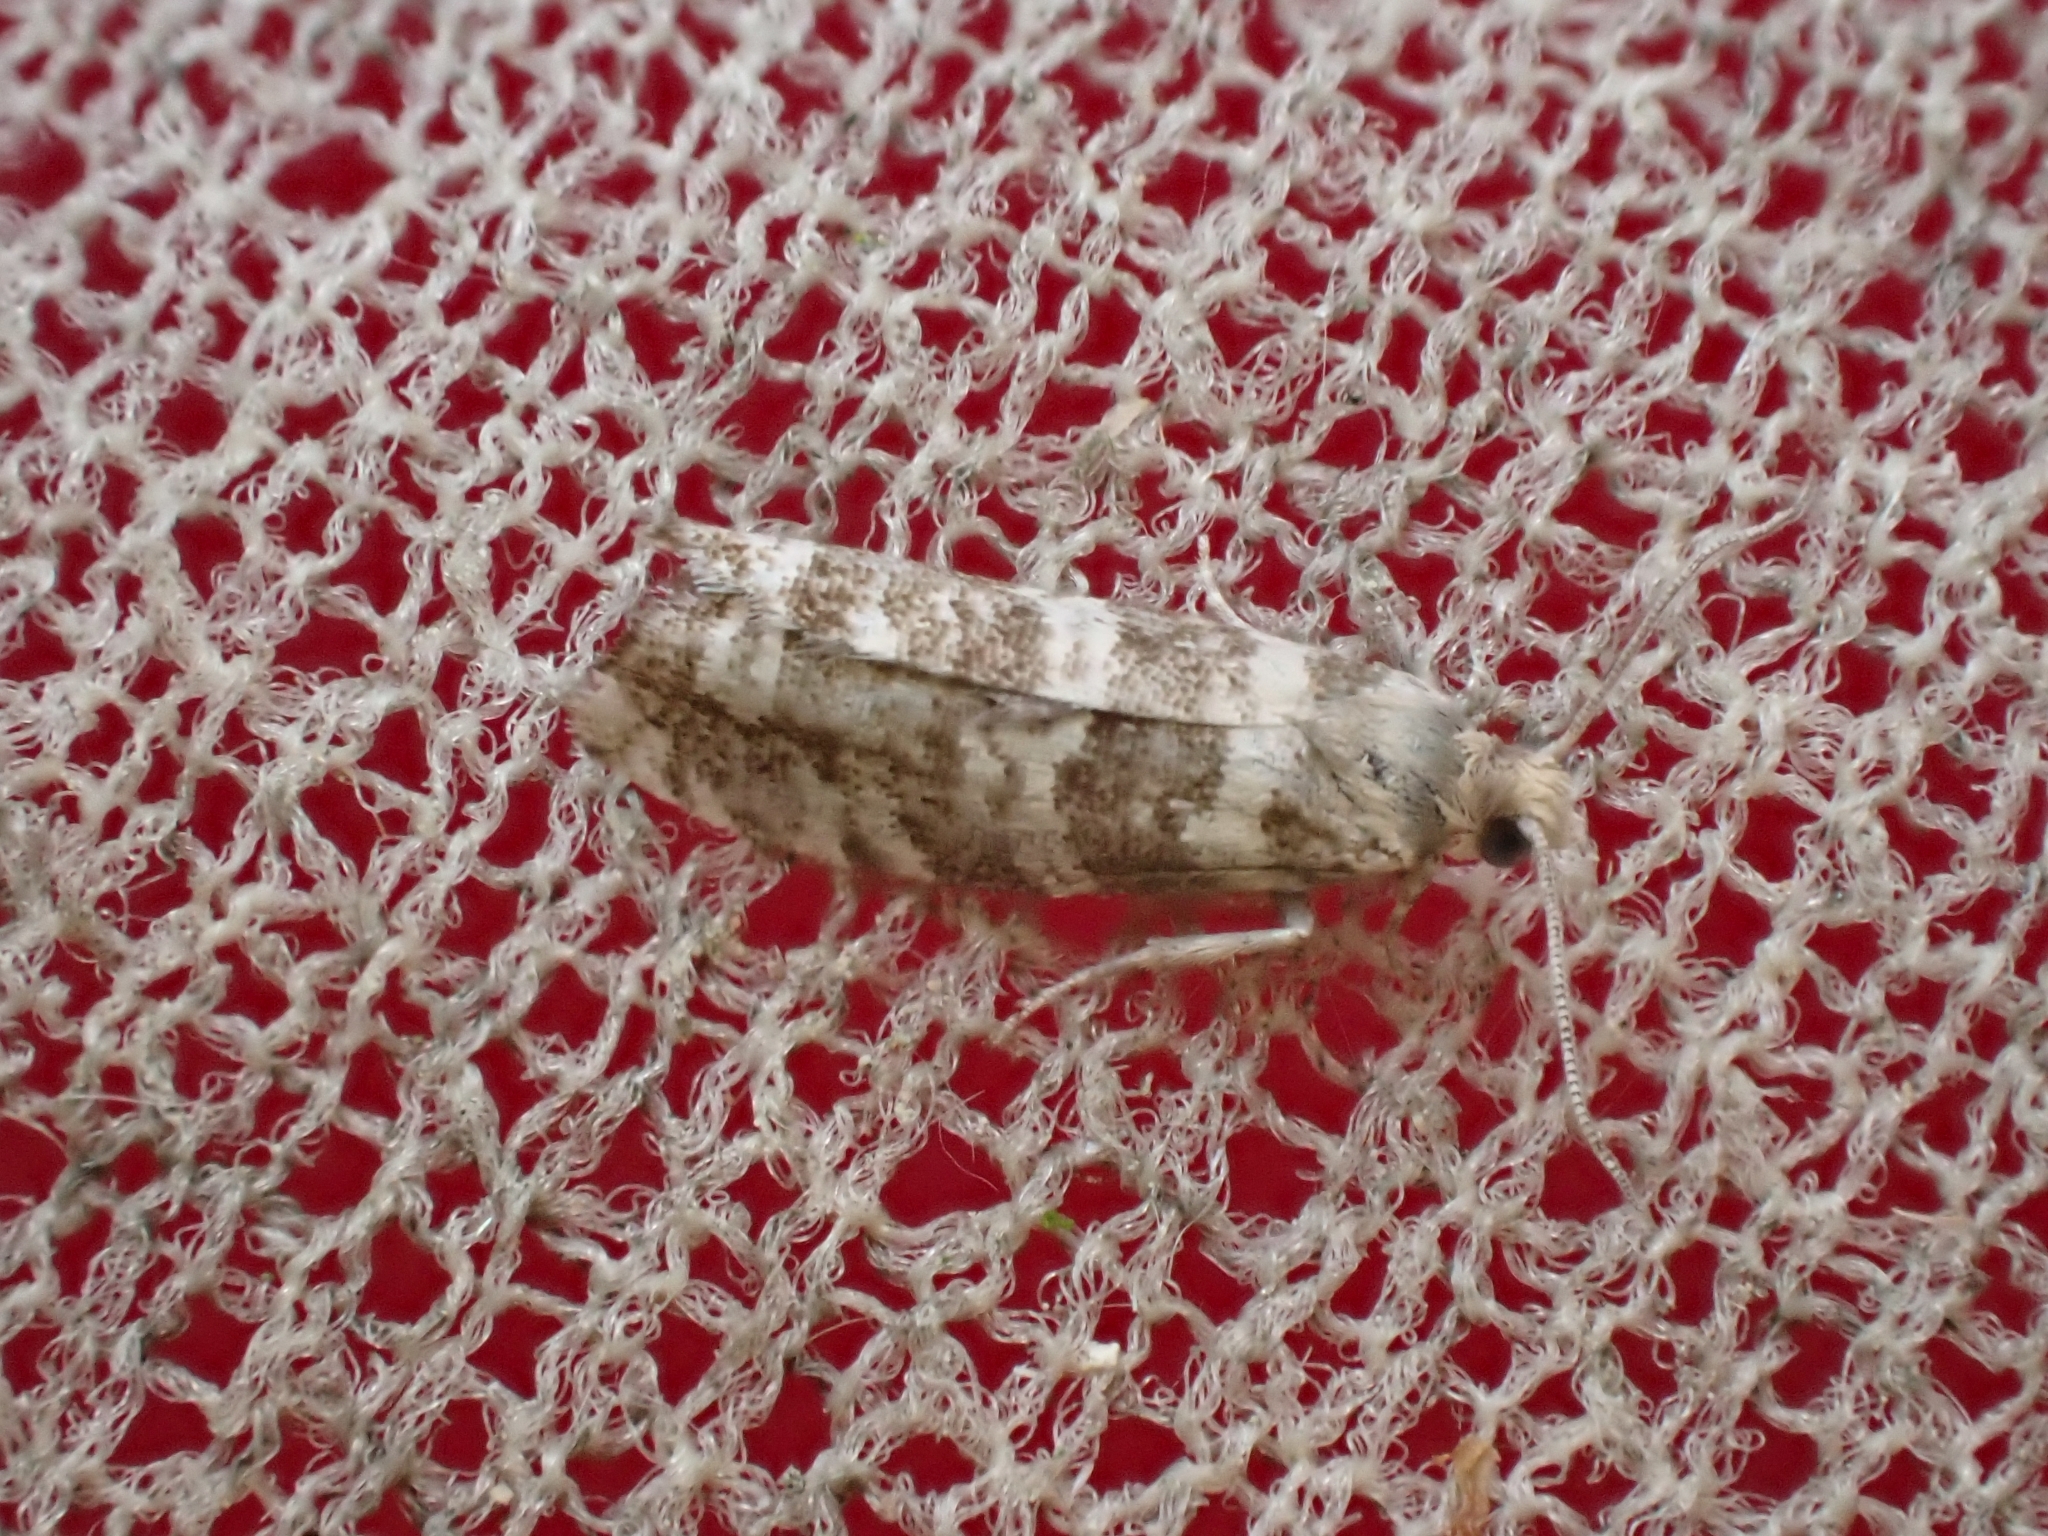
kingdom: Animalia
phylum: Arthropoda
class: Insecta
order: Lepidoptera
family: Tortricidae
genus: Epinotia
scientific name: Epinotia tedella
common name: Common spruce bell
